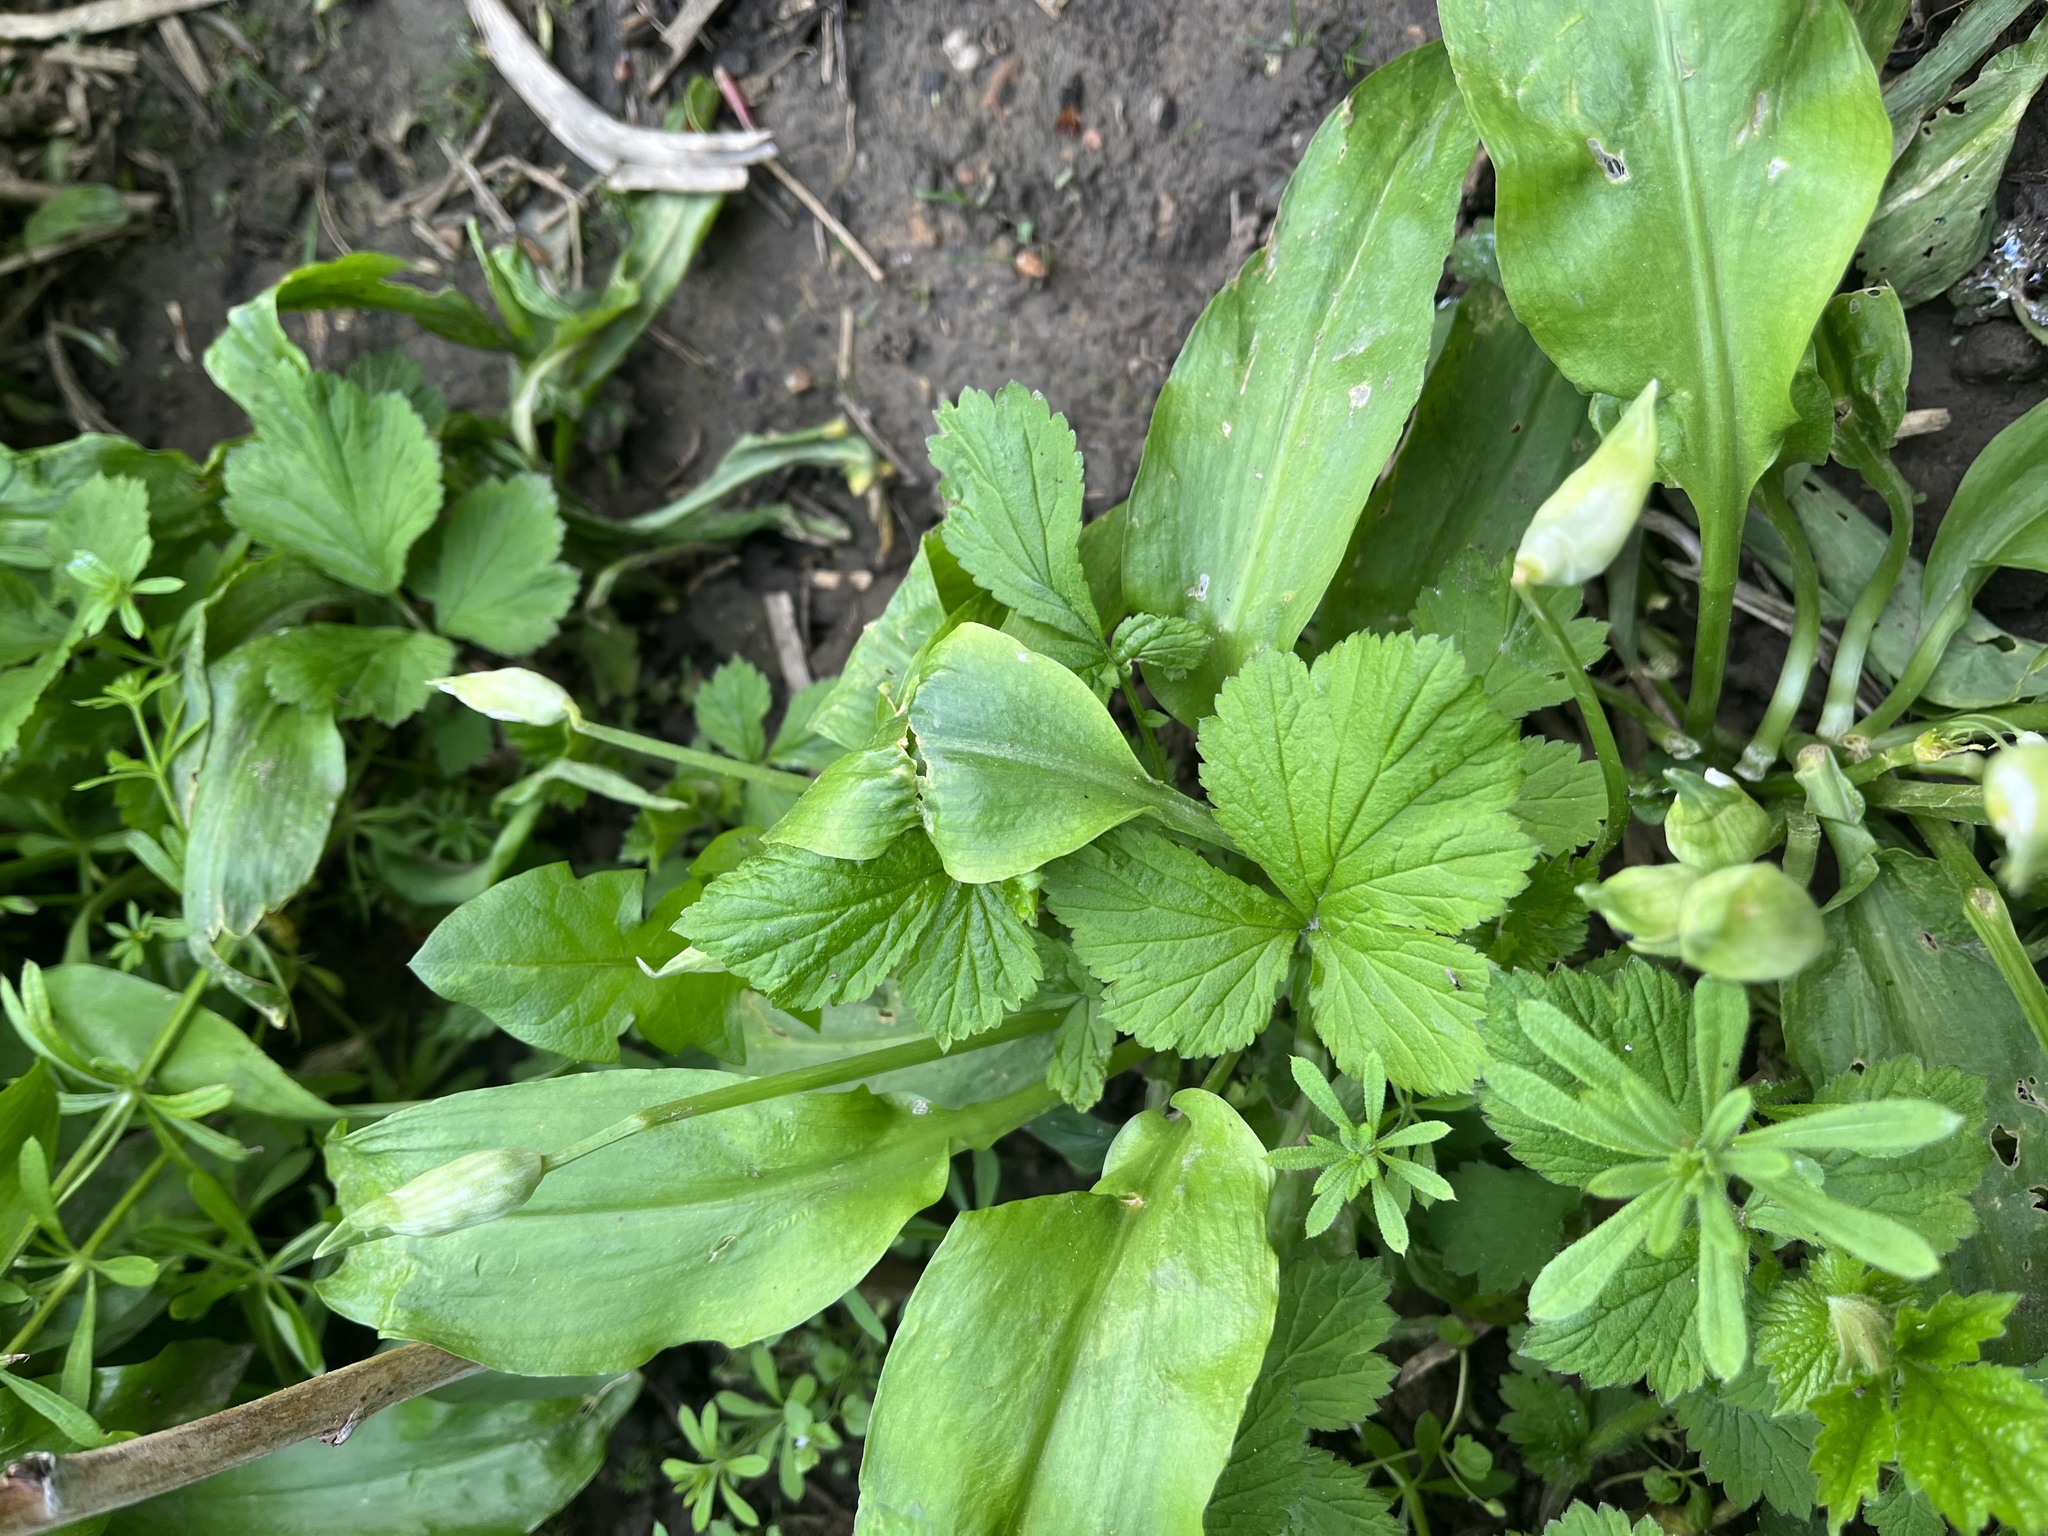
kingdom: Plantae
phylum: Tracheophyta
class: Liliopsida
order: Asparagales
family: Amaryllidaceae
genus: Allium
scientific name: Allium ursinum
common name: Ramsons
